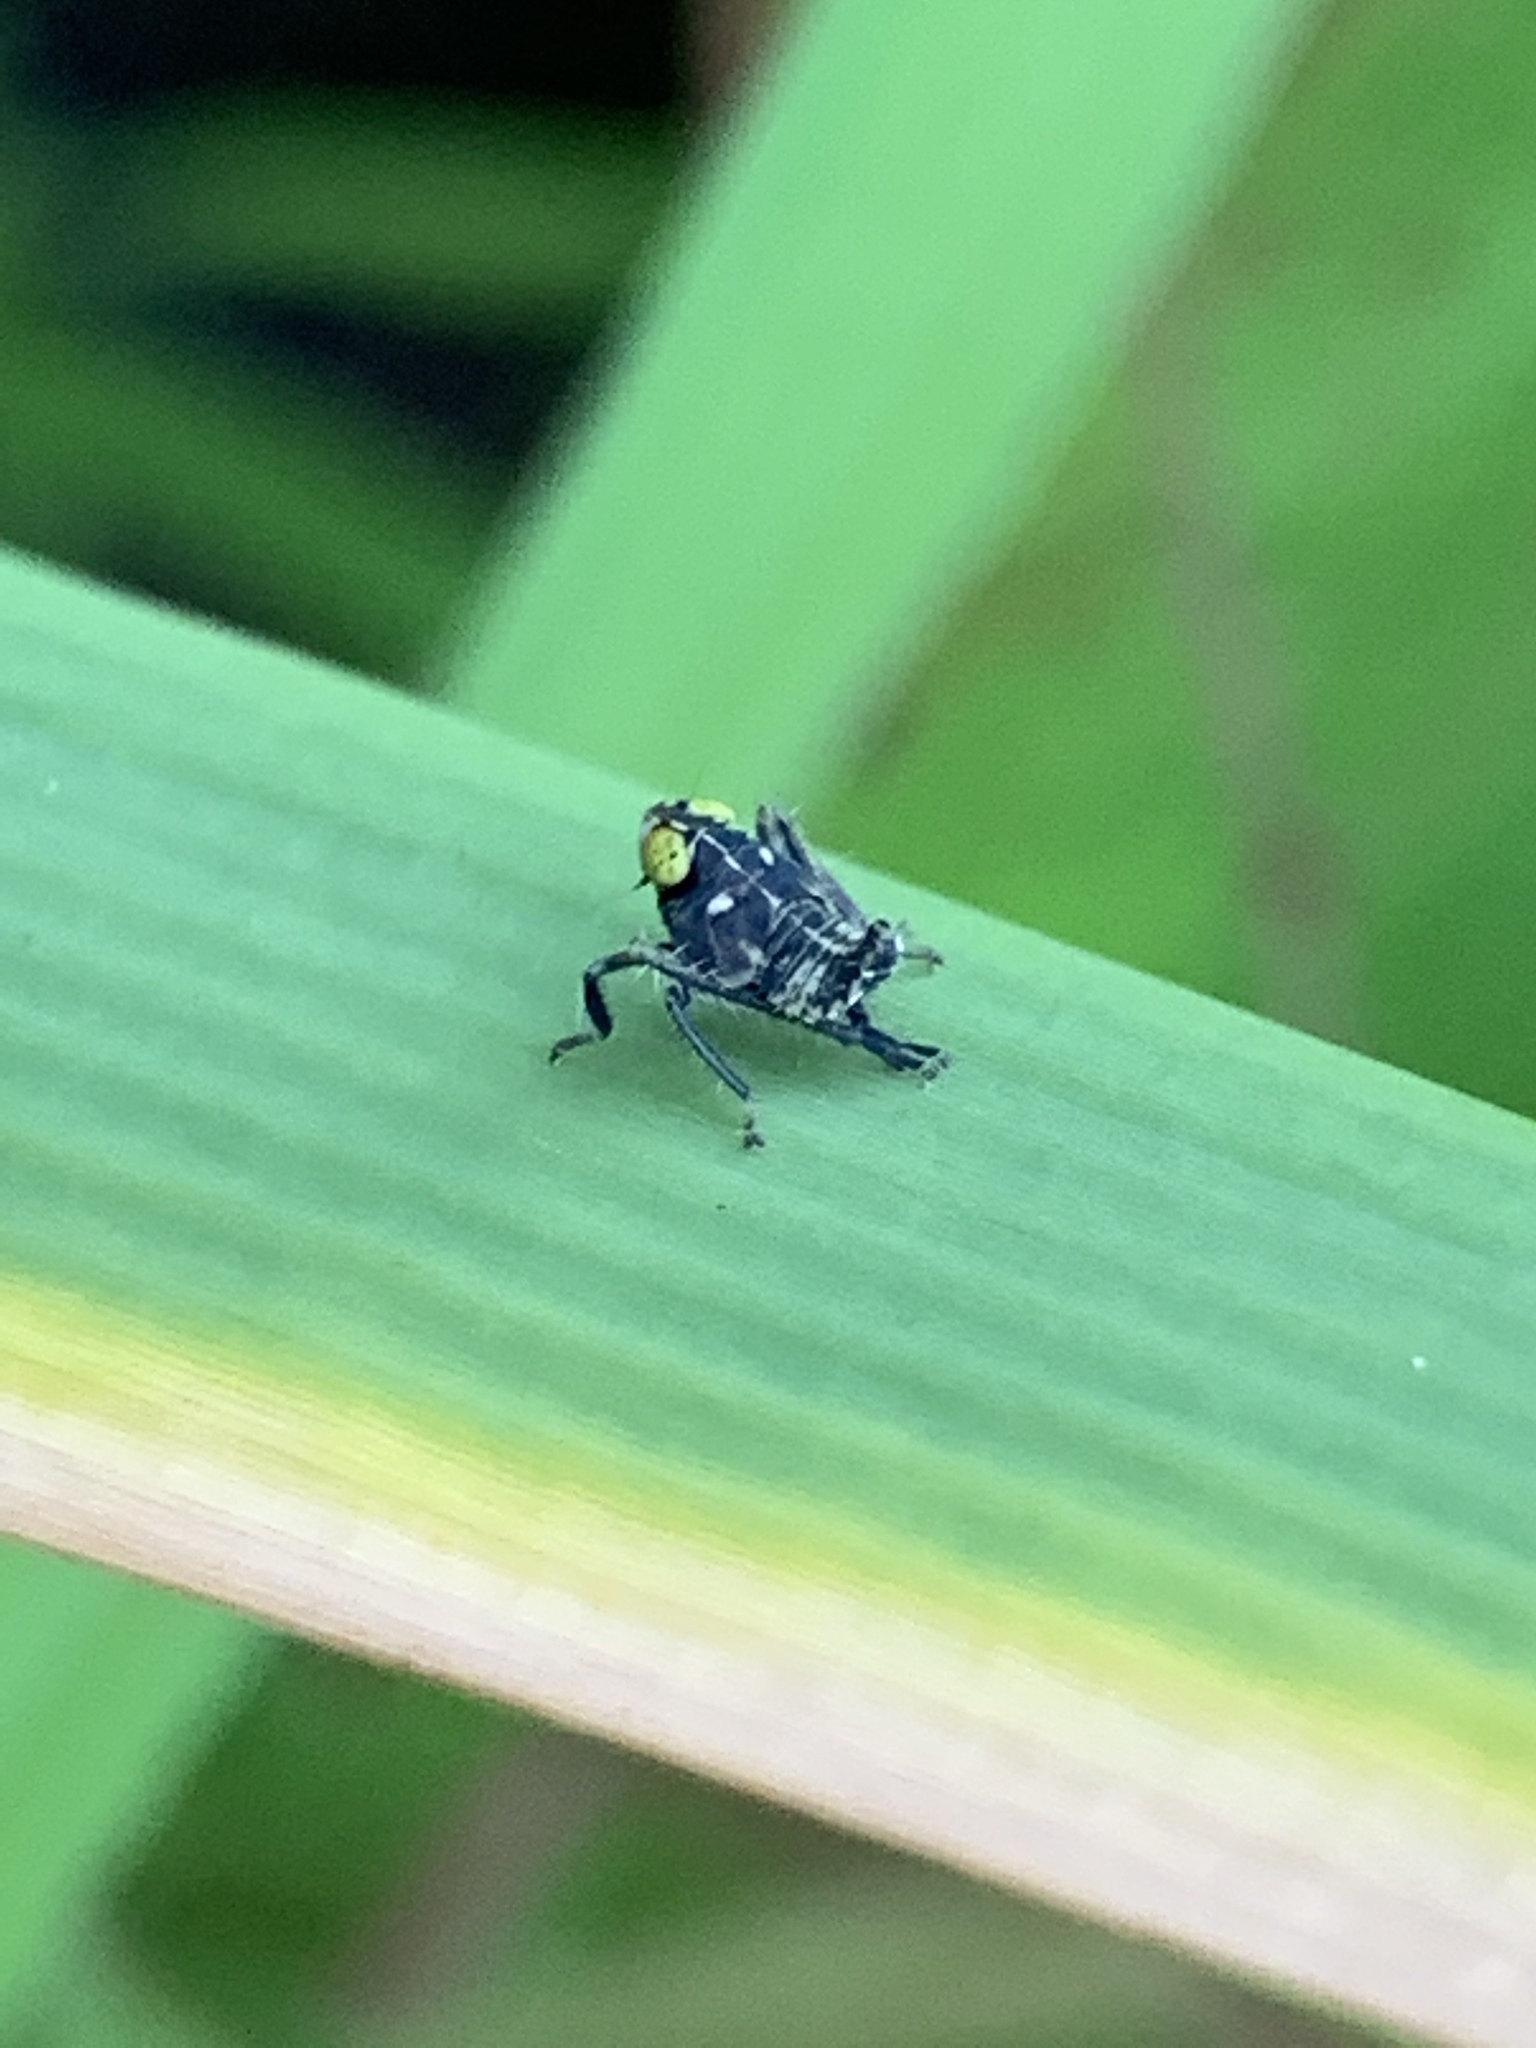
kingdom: Animalia
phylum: Arthropoda
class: Insecta
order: Hemiptera
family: Cicadellidae
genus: Jikradia
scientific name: Jikradia olitoria
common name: Coppery leafhopper
